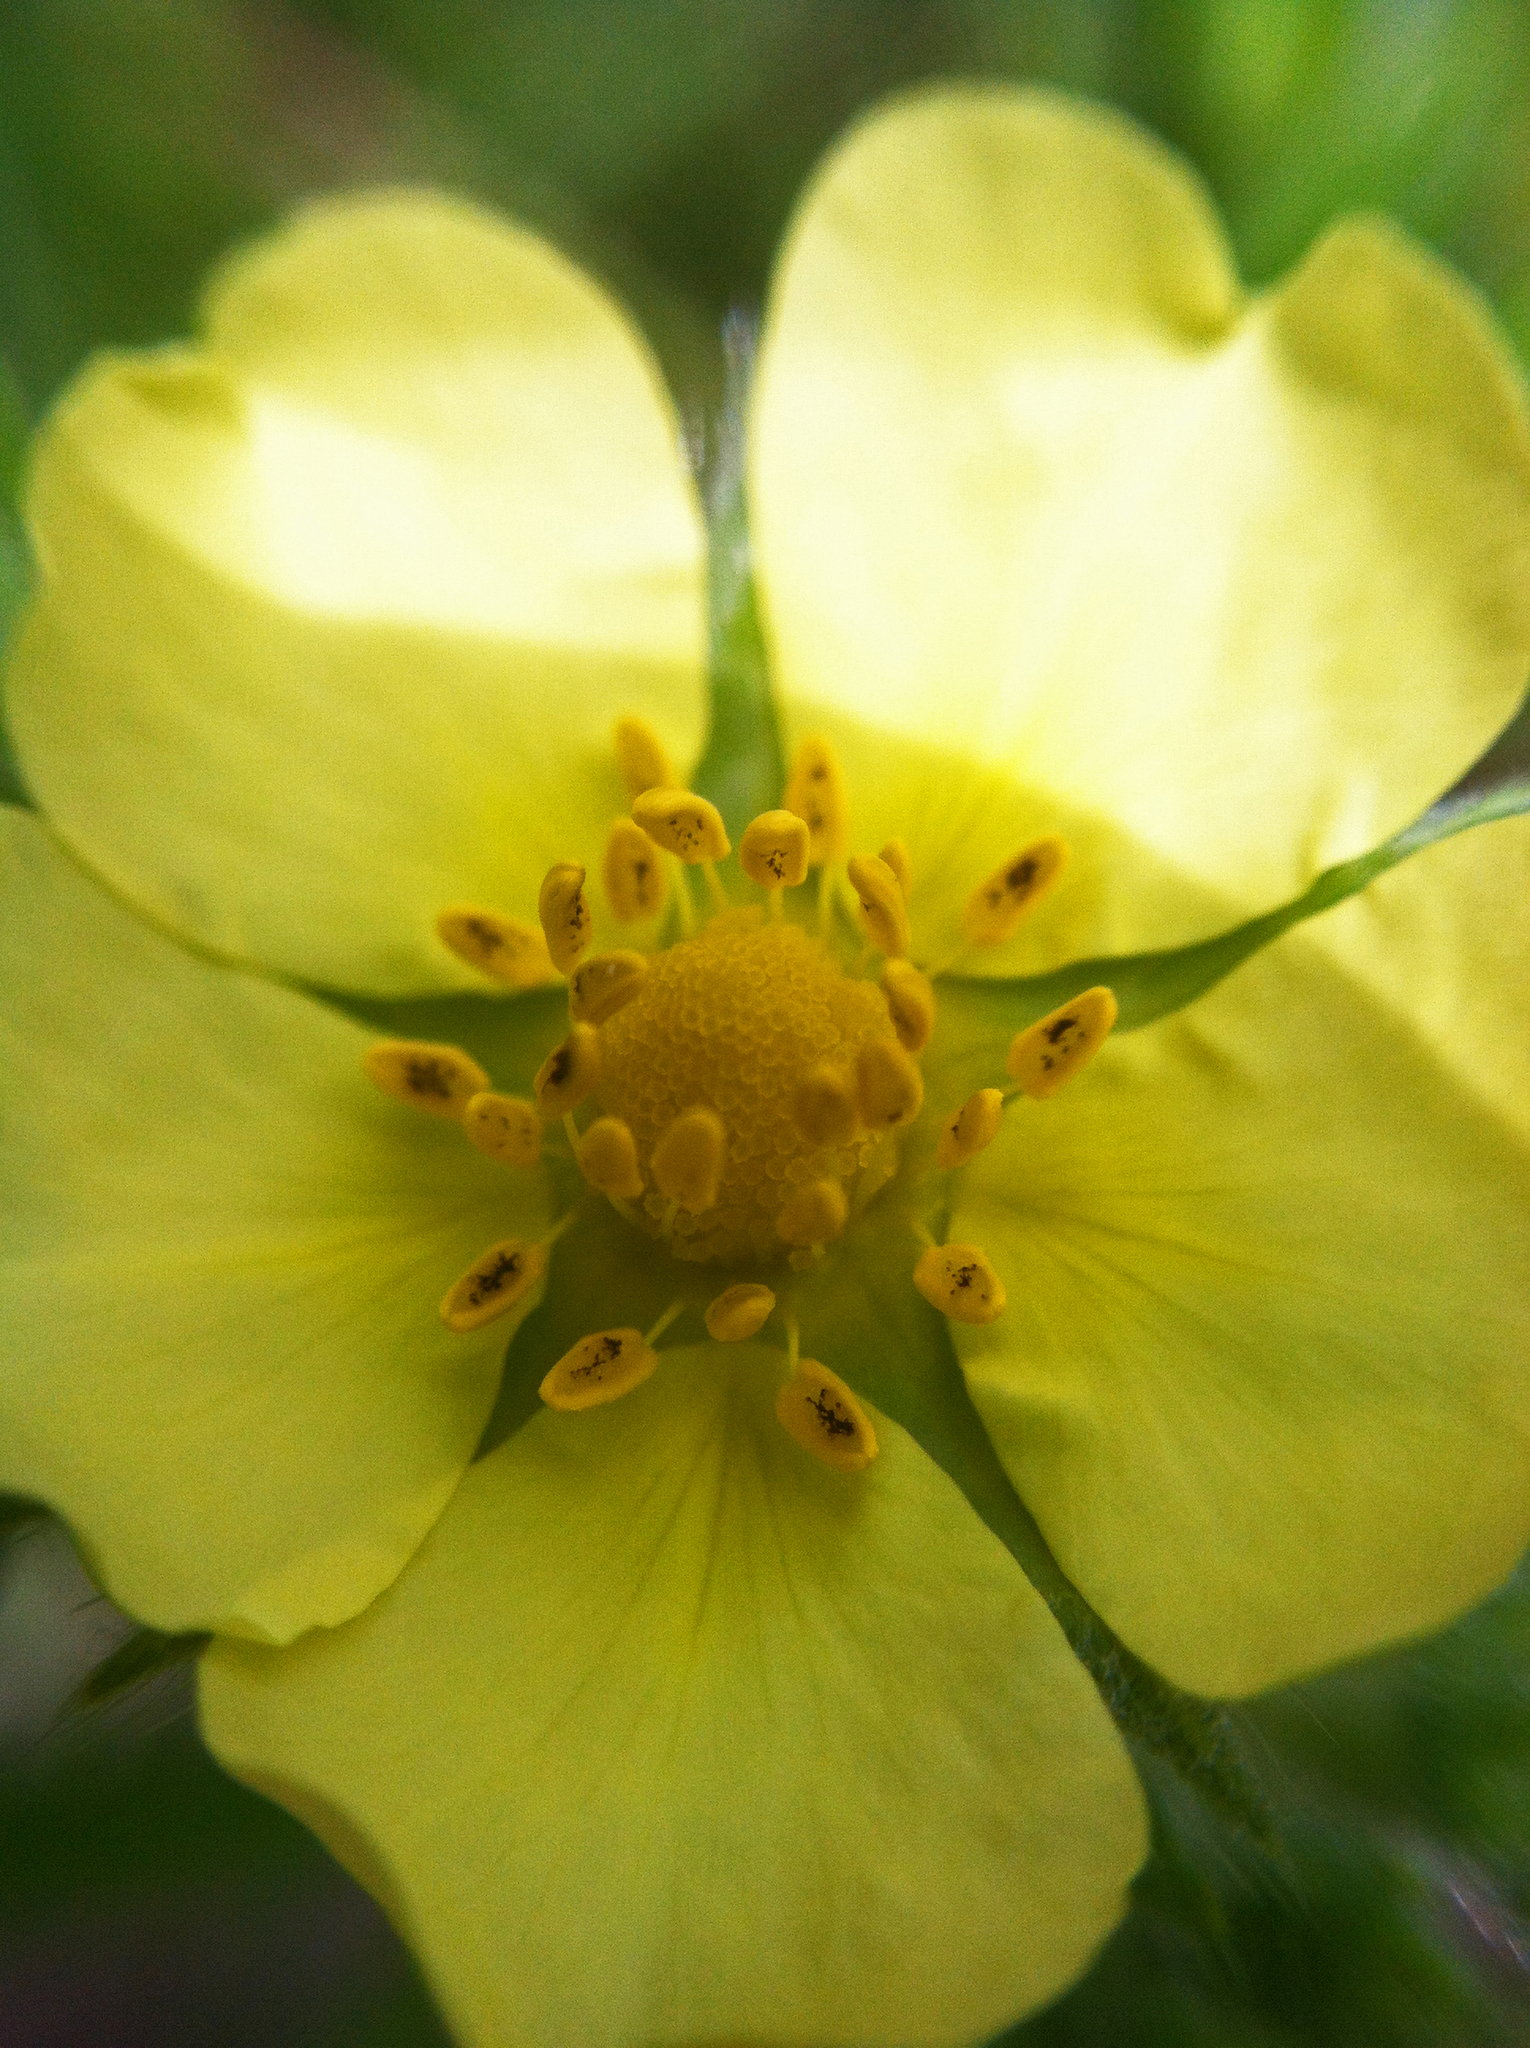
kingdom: Plantae
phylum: Tracheophyta
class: Magnoliopsida
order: Rosales
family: Rosaceae
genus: Potentilla
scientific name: Potentilla recta
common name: Sulphur cinquefoil
